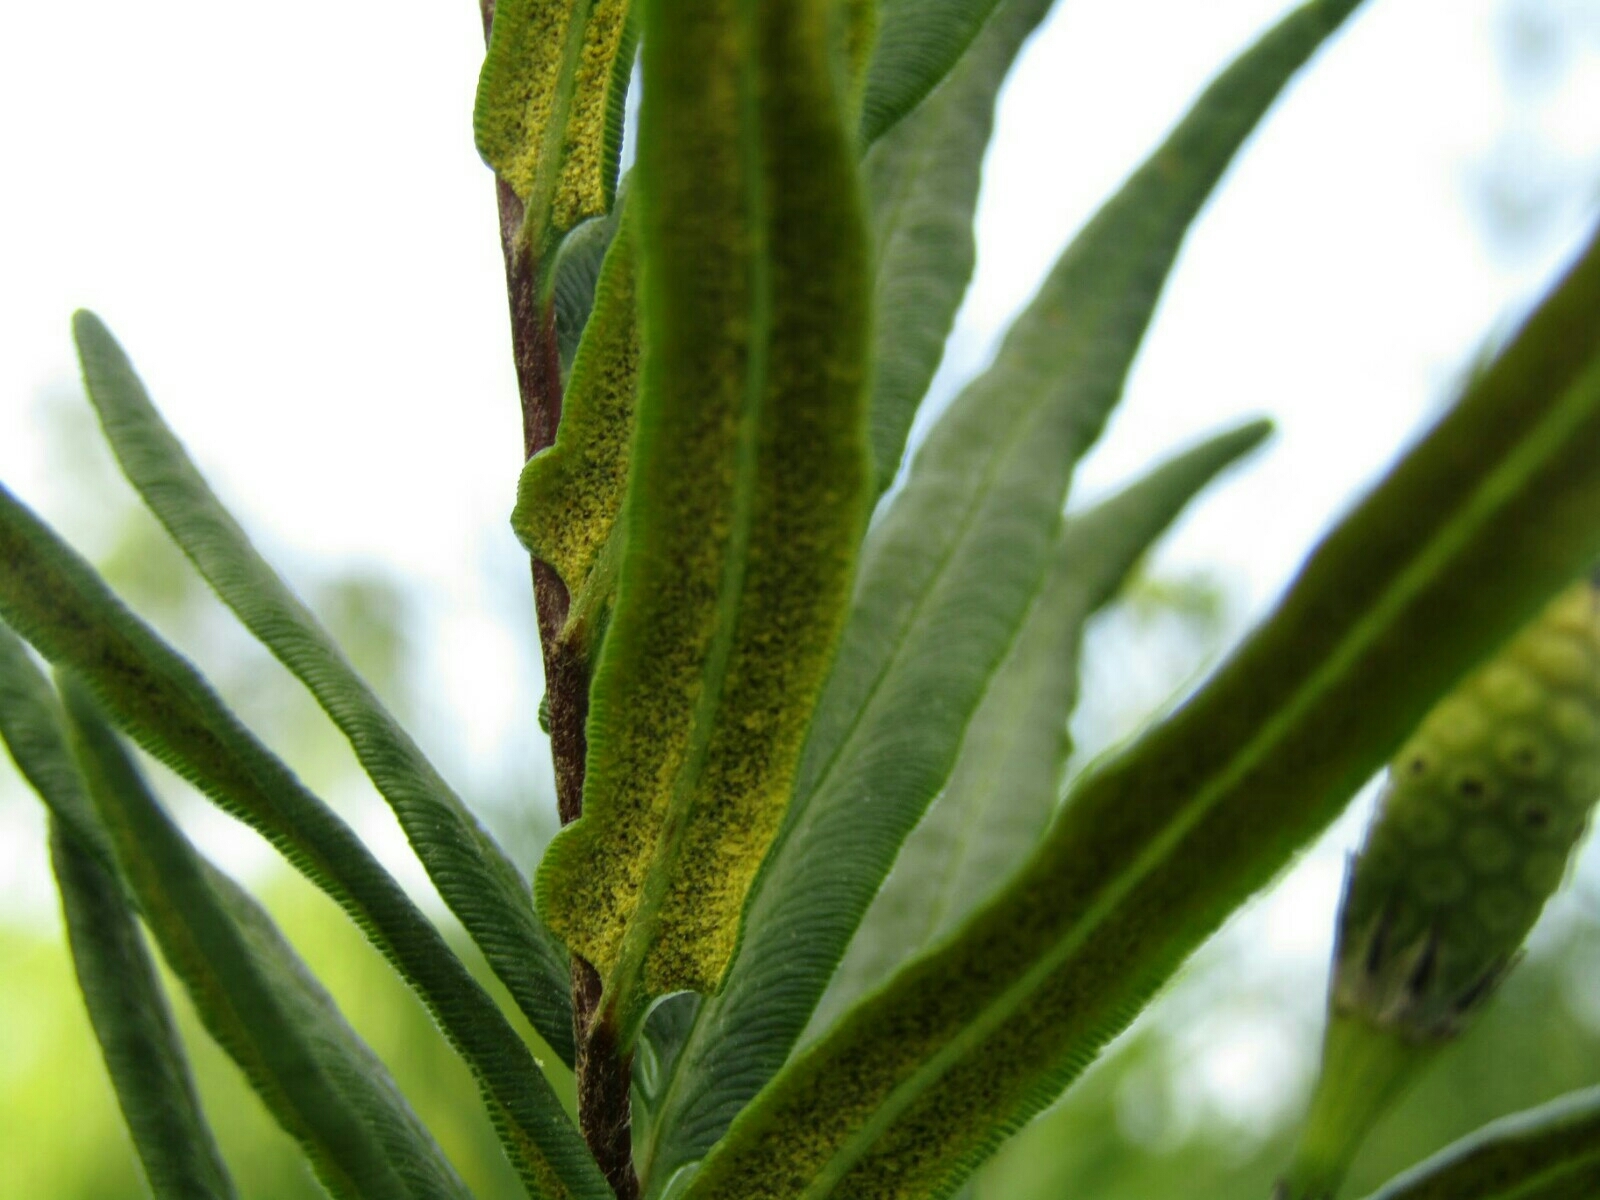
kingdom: Plantae
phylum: Tracheophyta
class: Polypodiopsida
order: Polypodiales
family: Pteridaceae
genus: Pityrogramma
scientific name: Pityrogramma trifoliata
